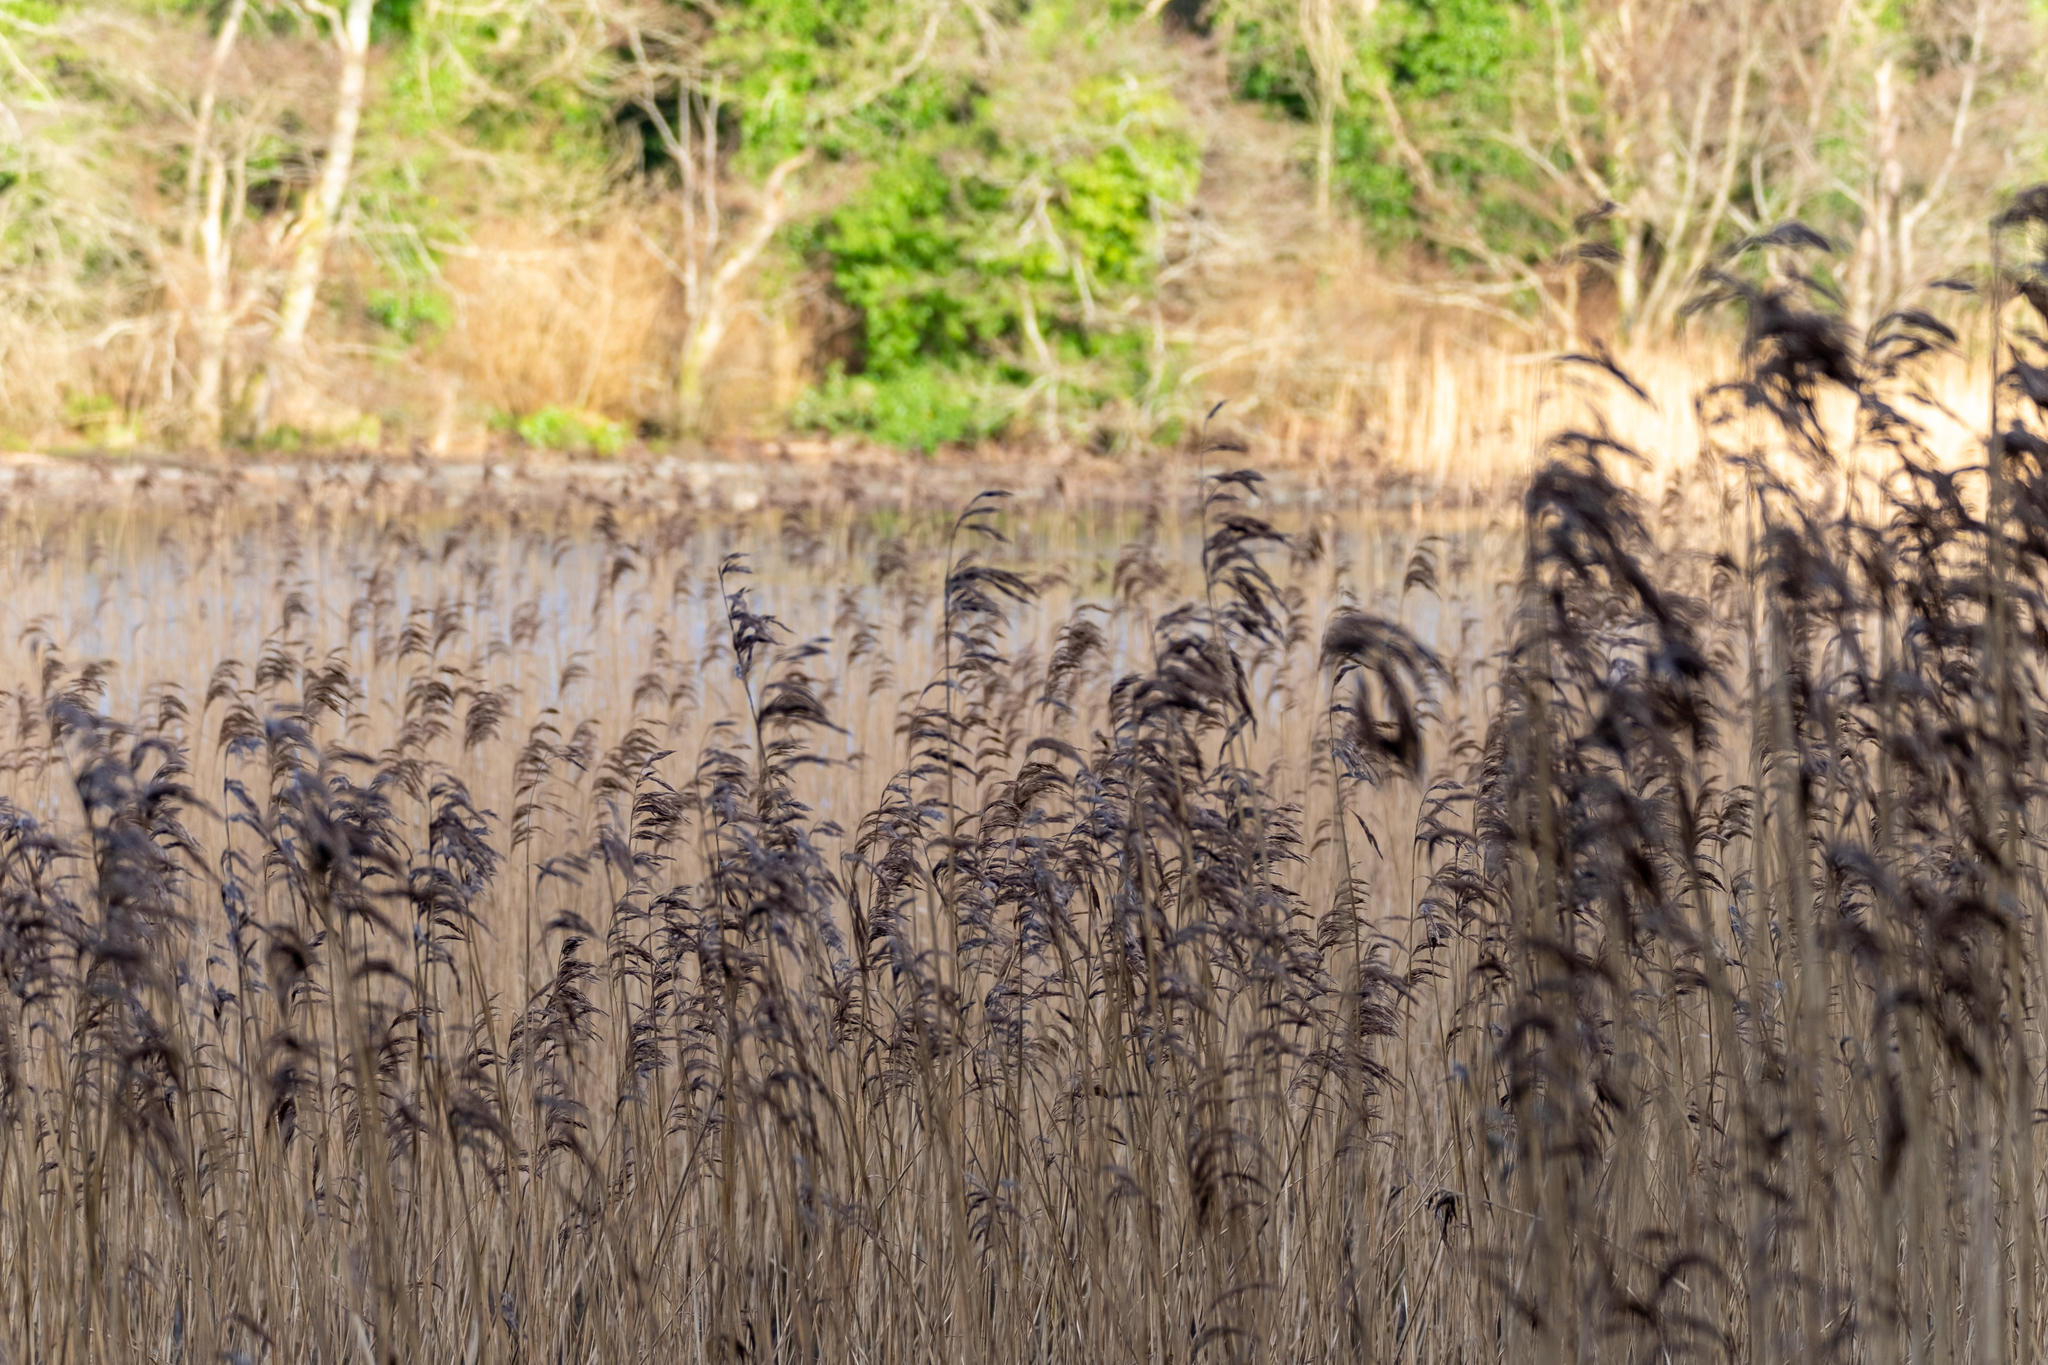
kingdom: Plantae
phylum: Tracheophyta
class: Liliopsida
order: Poales
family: Poaceae
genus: Phragmites
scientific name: Phragmites australis
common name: Common reed
